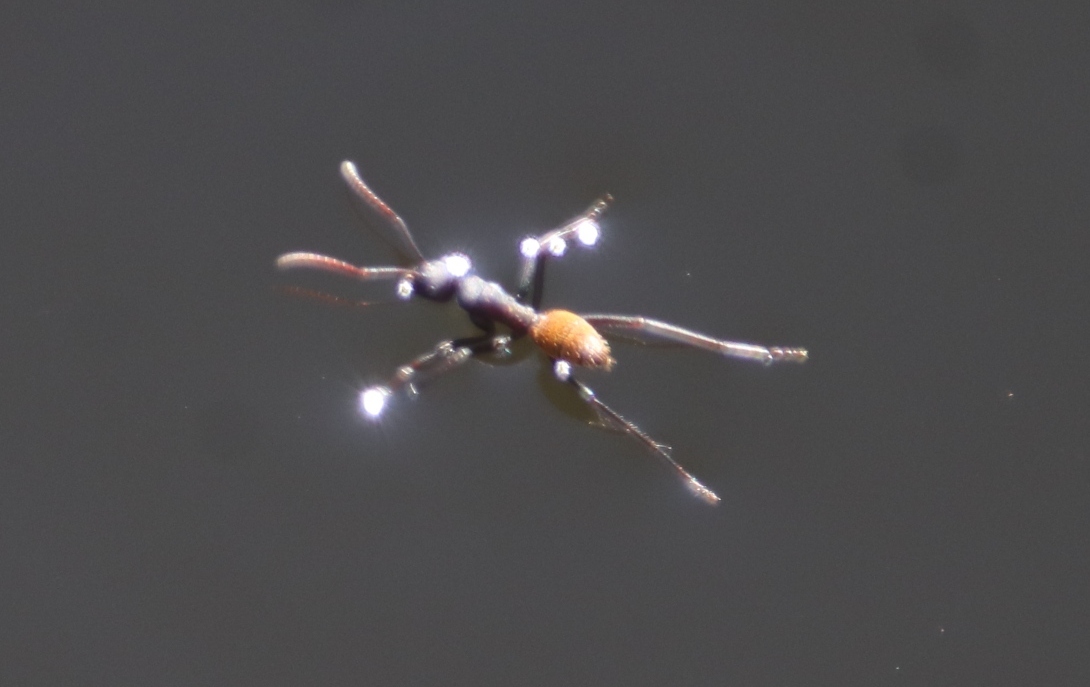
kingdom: Animalia
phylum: Arthropoda
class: Insecta
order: Hymenoptera
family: Formicidae
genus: Camponotus
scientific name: Camponotus fulvopilosus
